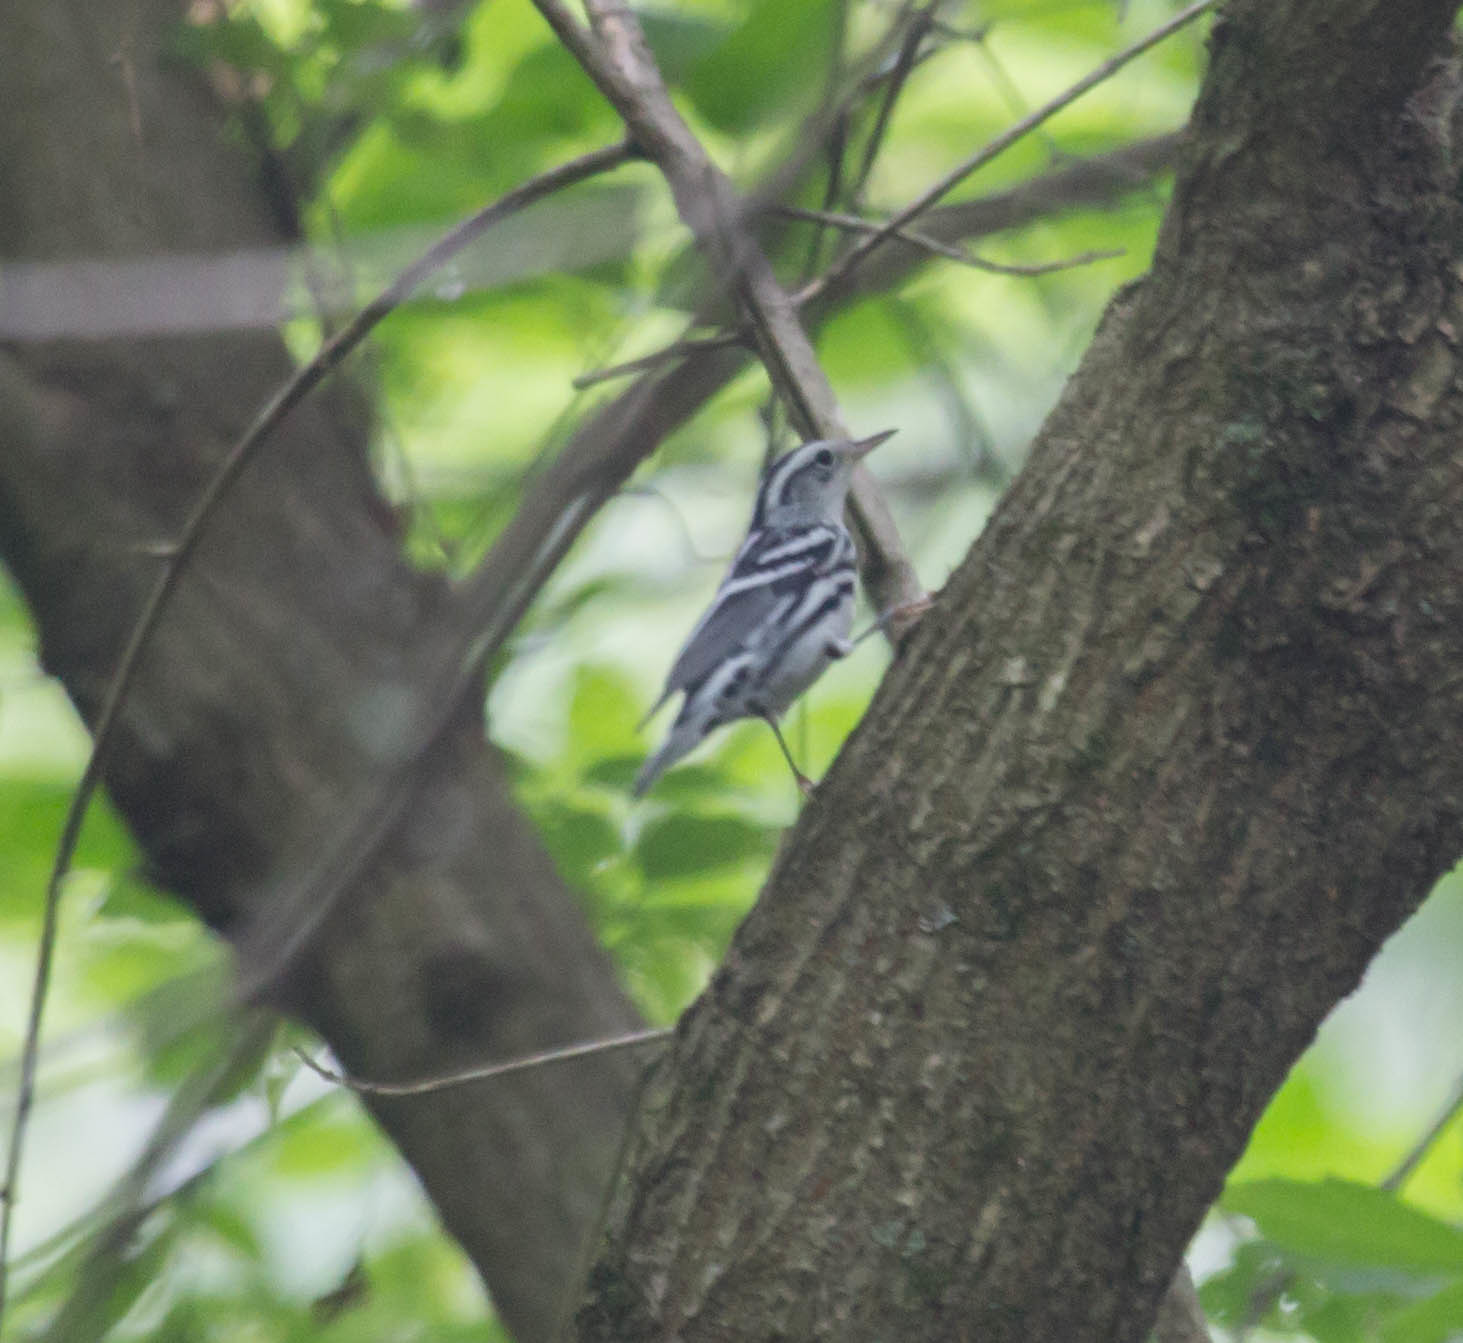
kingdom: Animalia
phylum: Chordata
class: Aves
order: Passeriformes
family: Parulidae
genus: Mniotilta
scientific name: Mniotilta varia
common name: Black-and-white warbler
